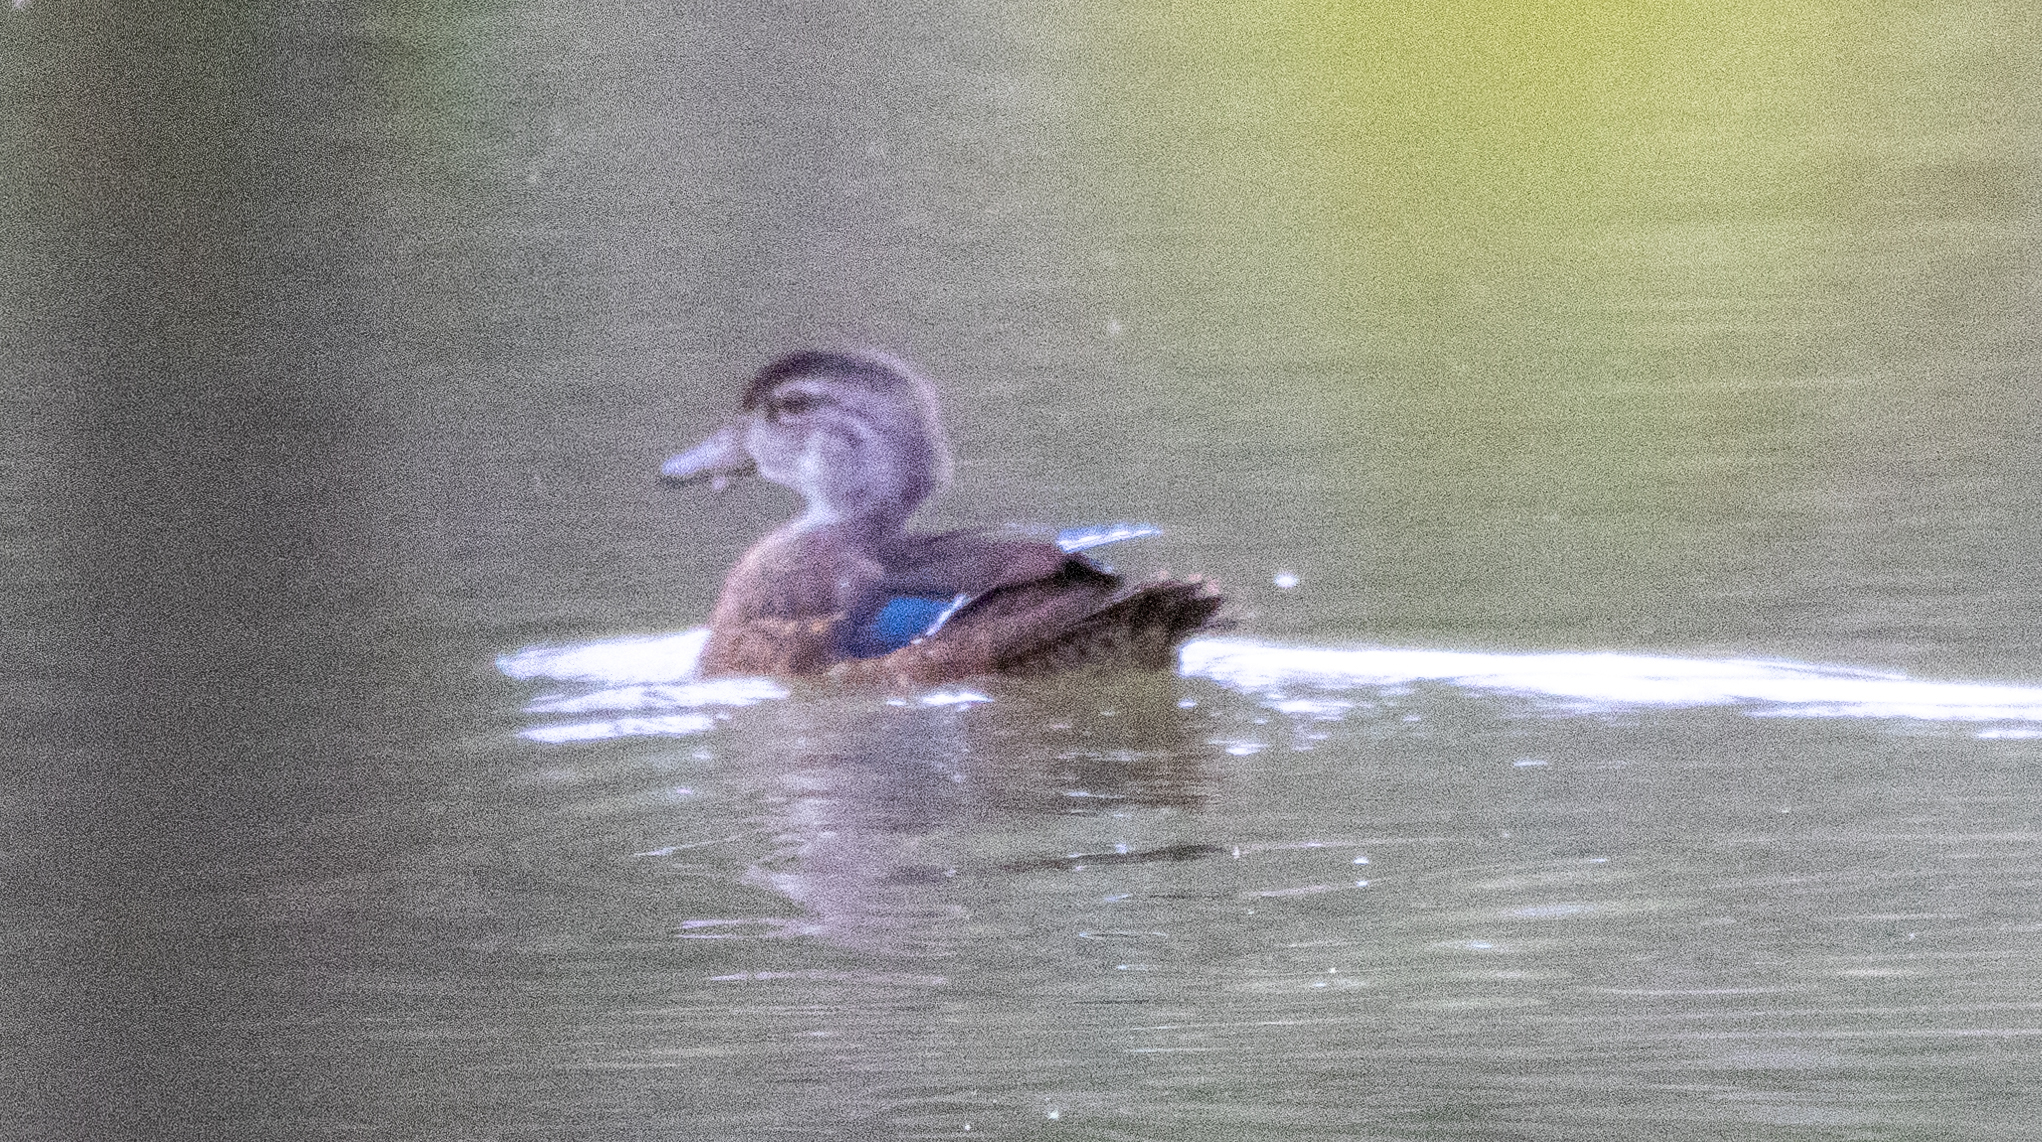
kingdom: Animalia
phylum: Chordata
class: Aves
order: Anseriformes
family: Anatidae
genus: Aix
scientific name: Aix sponsa
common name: Wood duck
